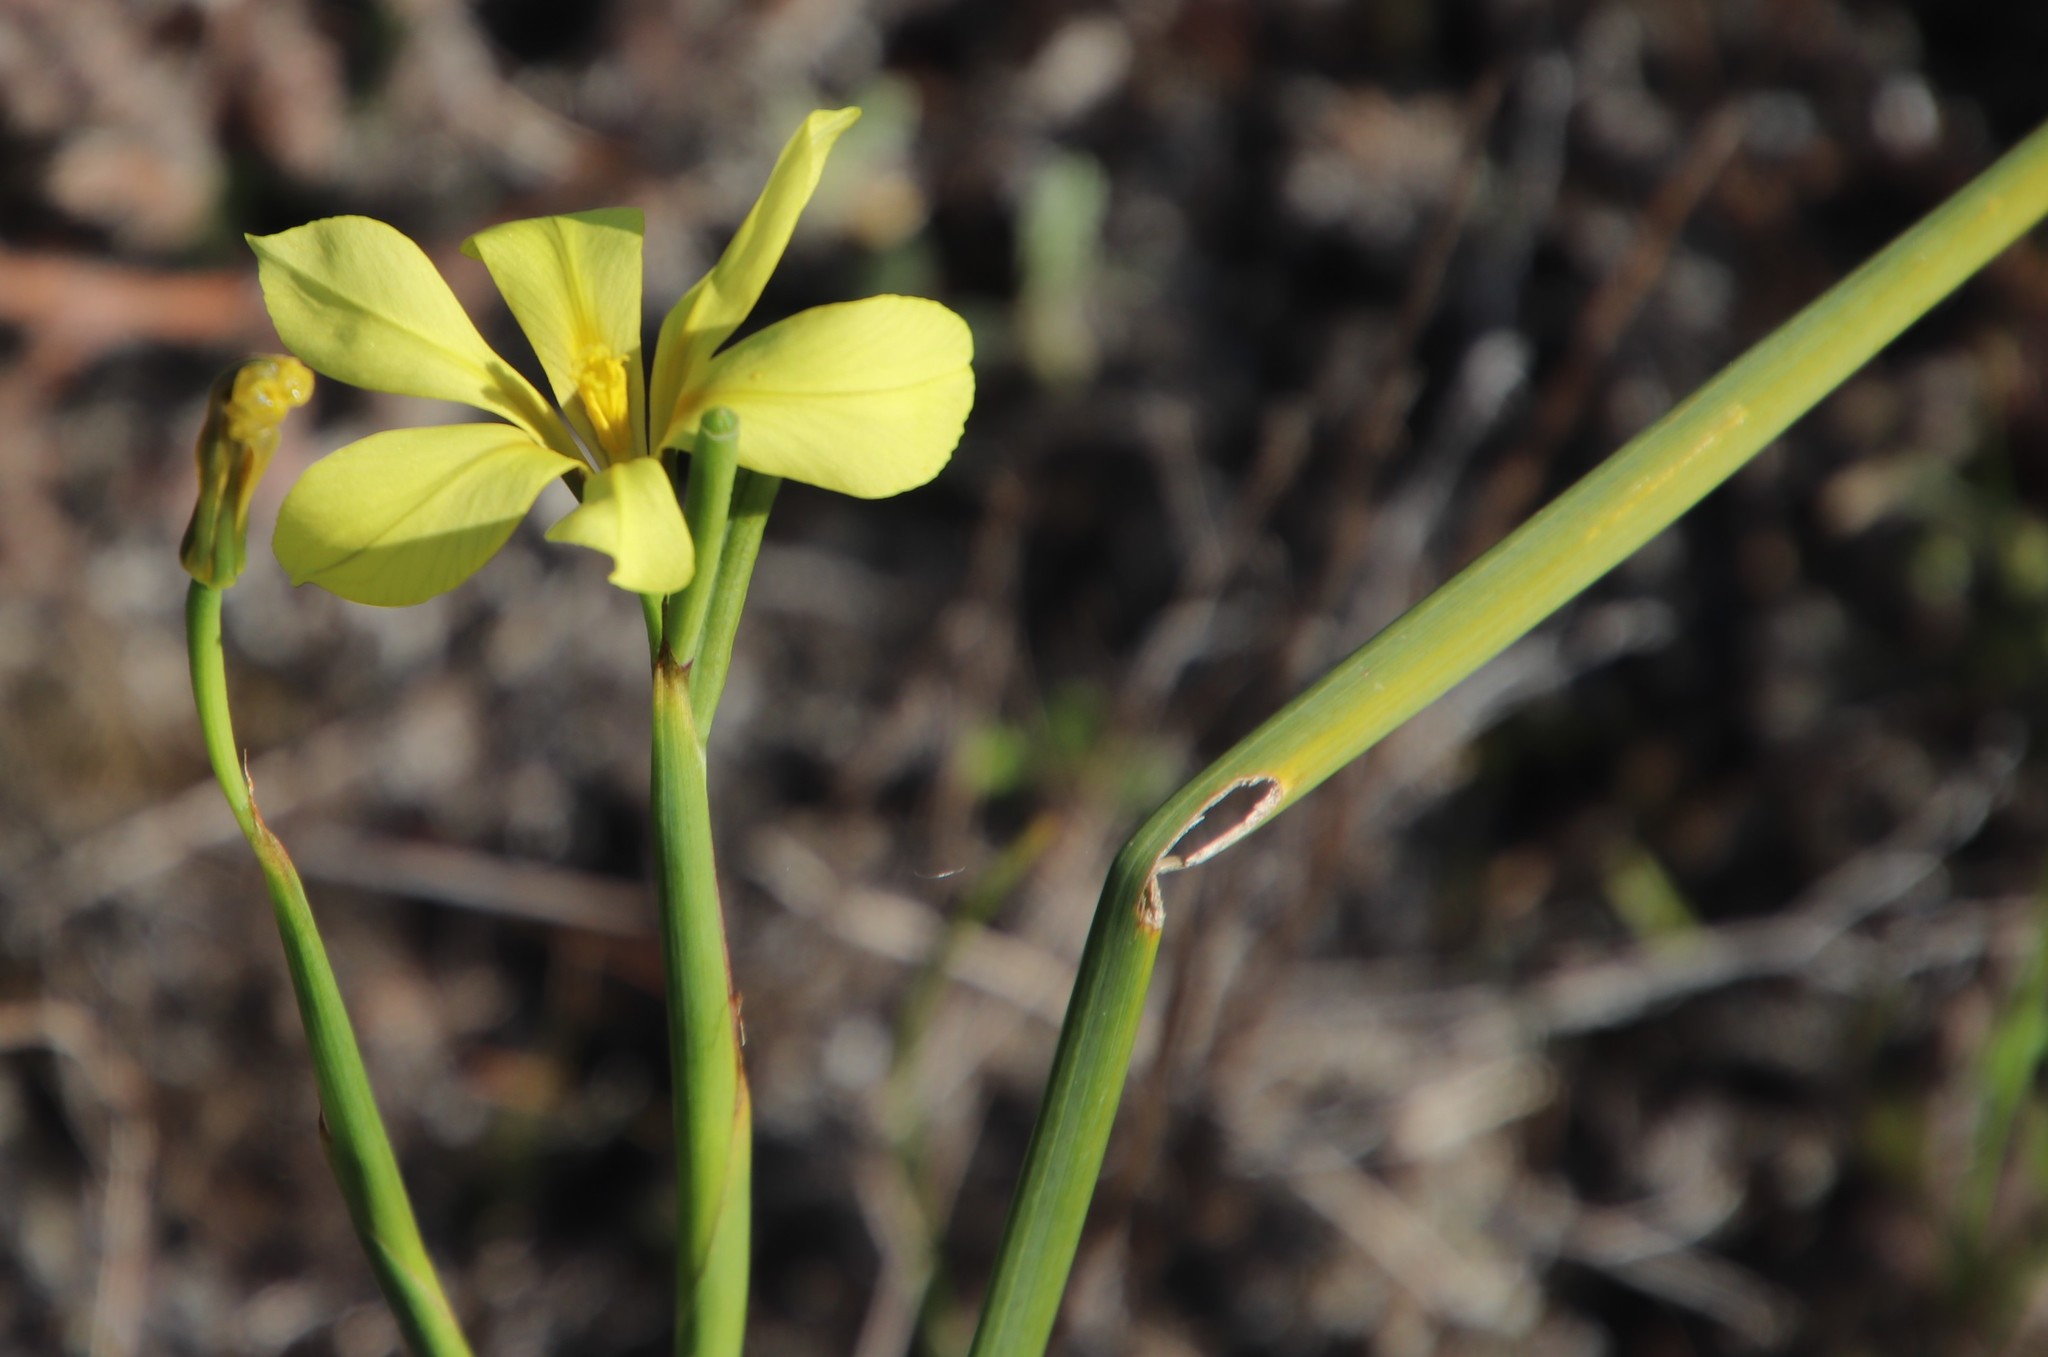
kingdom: Plantae
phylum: Tracheophyta
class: Liliopsida
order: Asparagales
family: Iridaceae
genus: Moraea
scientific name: Moraea collina
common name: Cape-tulip
